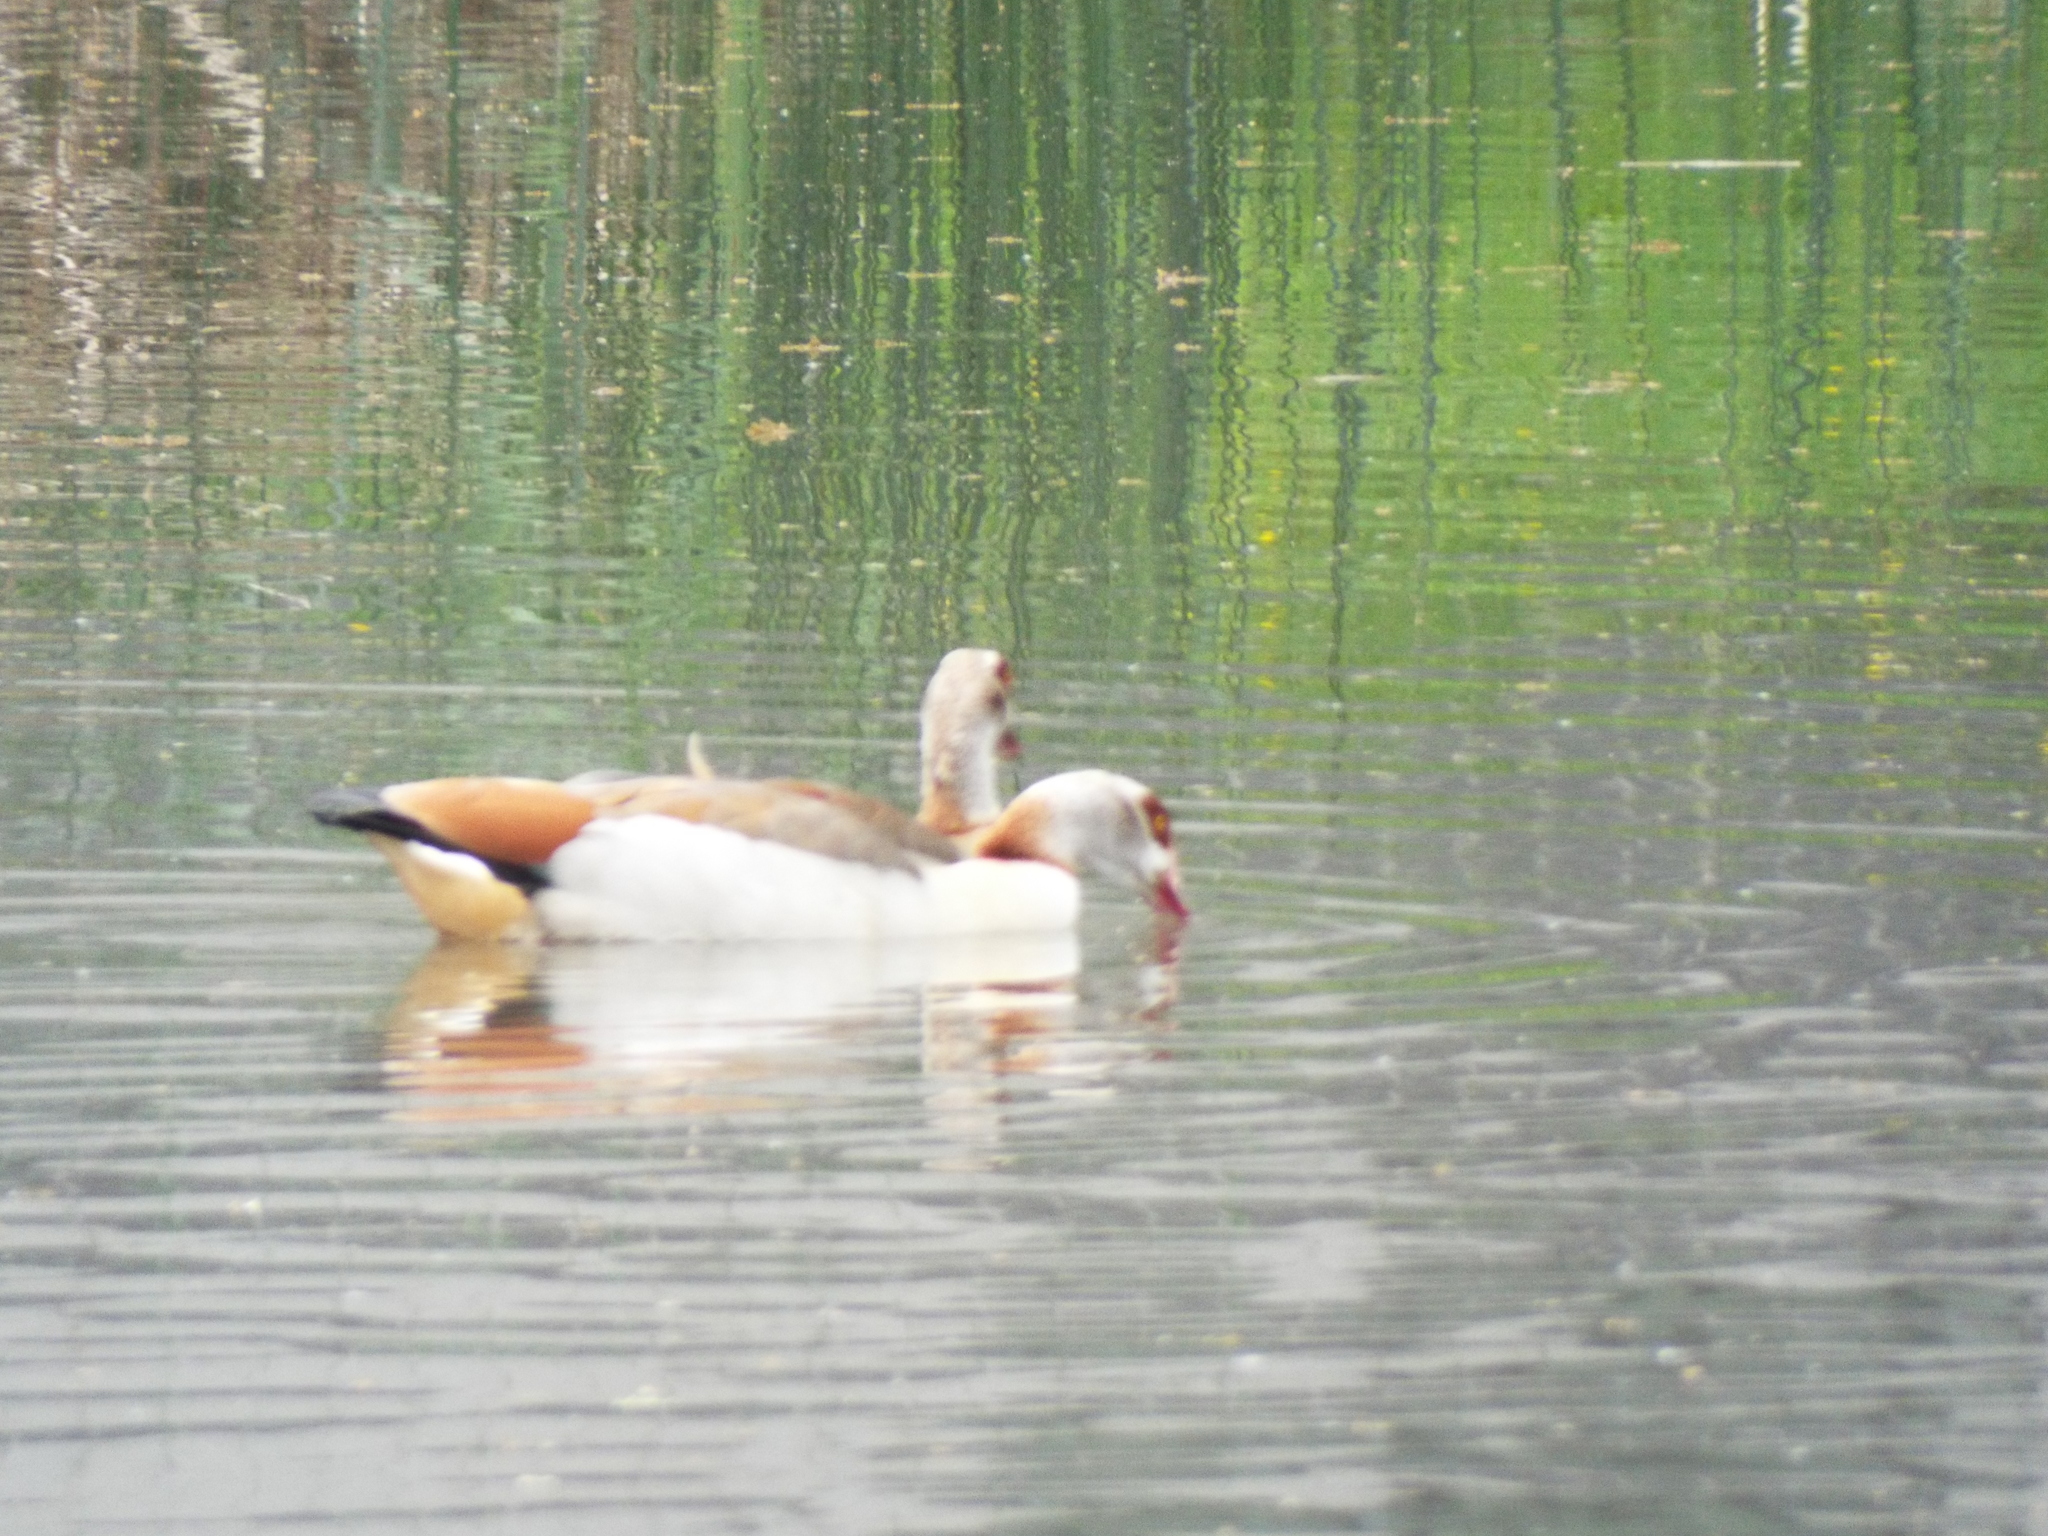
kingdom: Animalia
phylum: Chordata
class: Aves
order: Anseriformes
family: Anatidae
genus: Alopochen
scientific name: Alopochen aegyptiaca
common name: Egyptian goose
